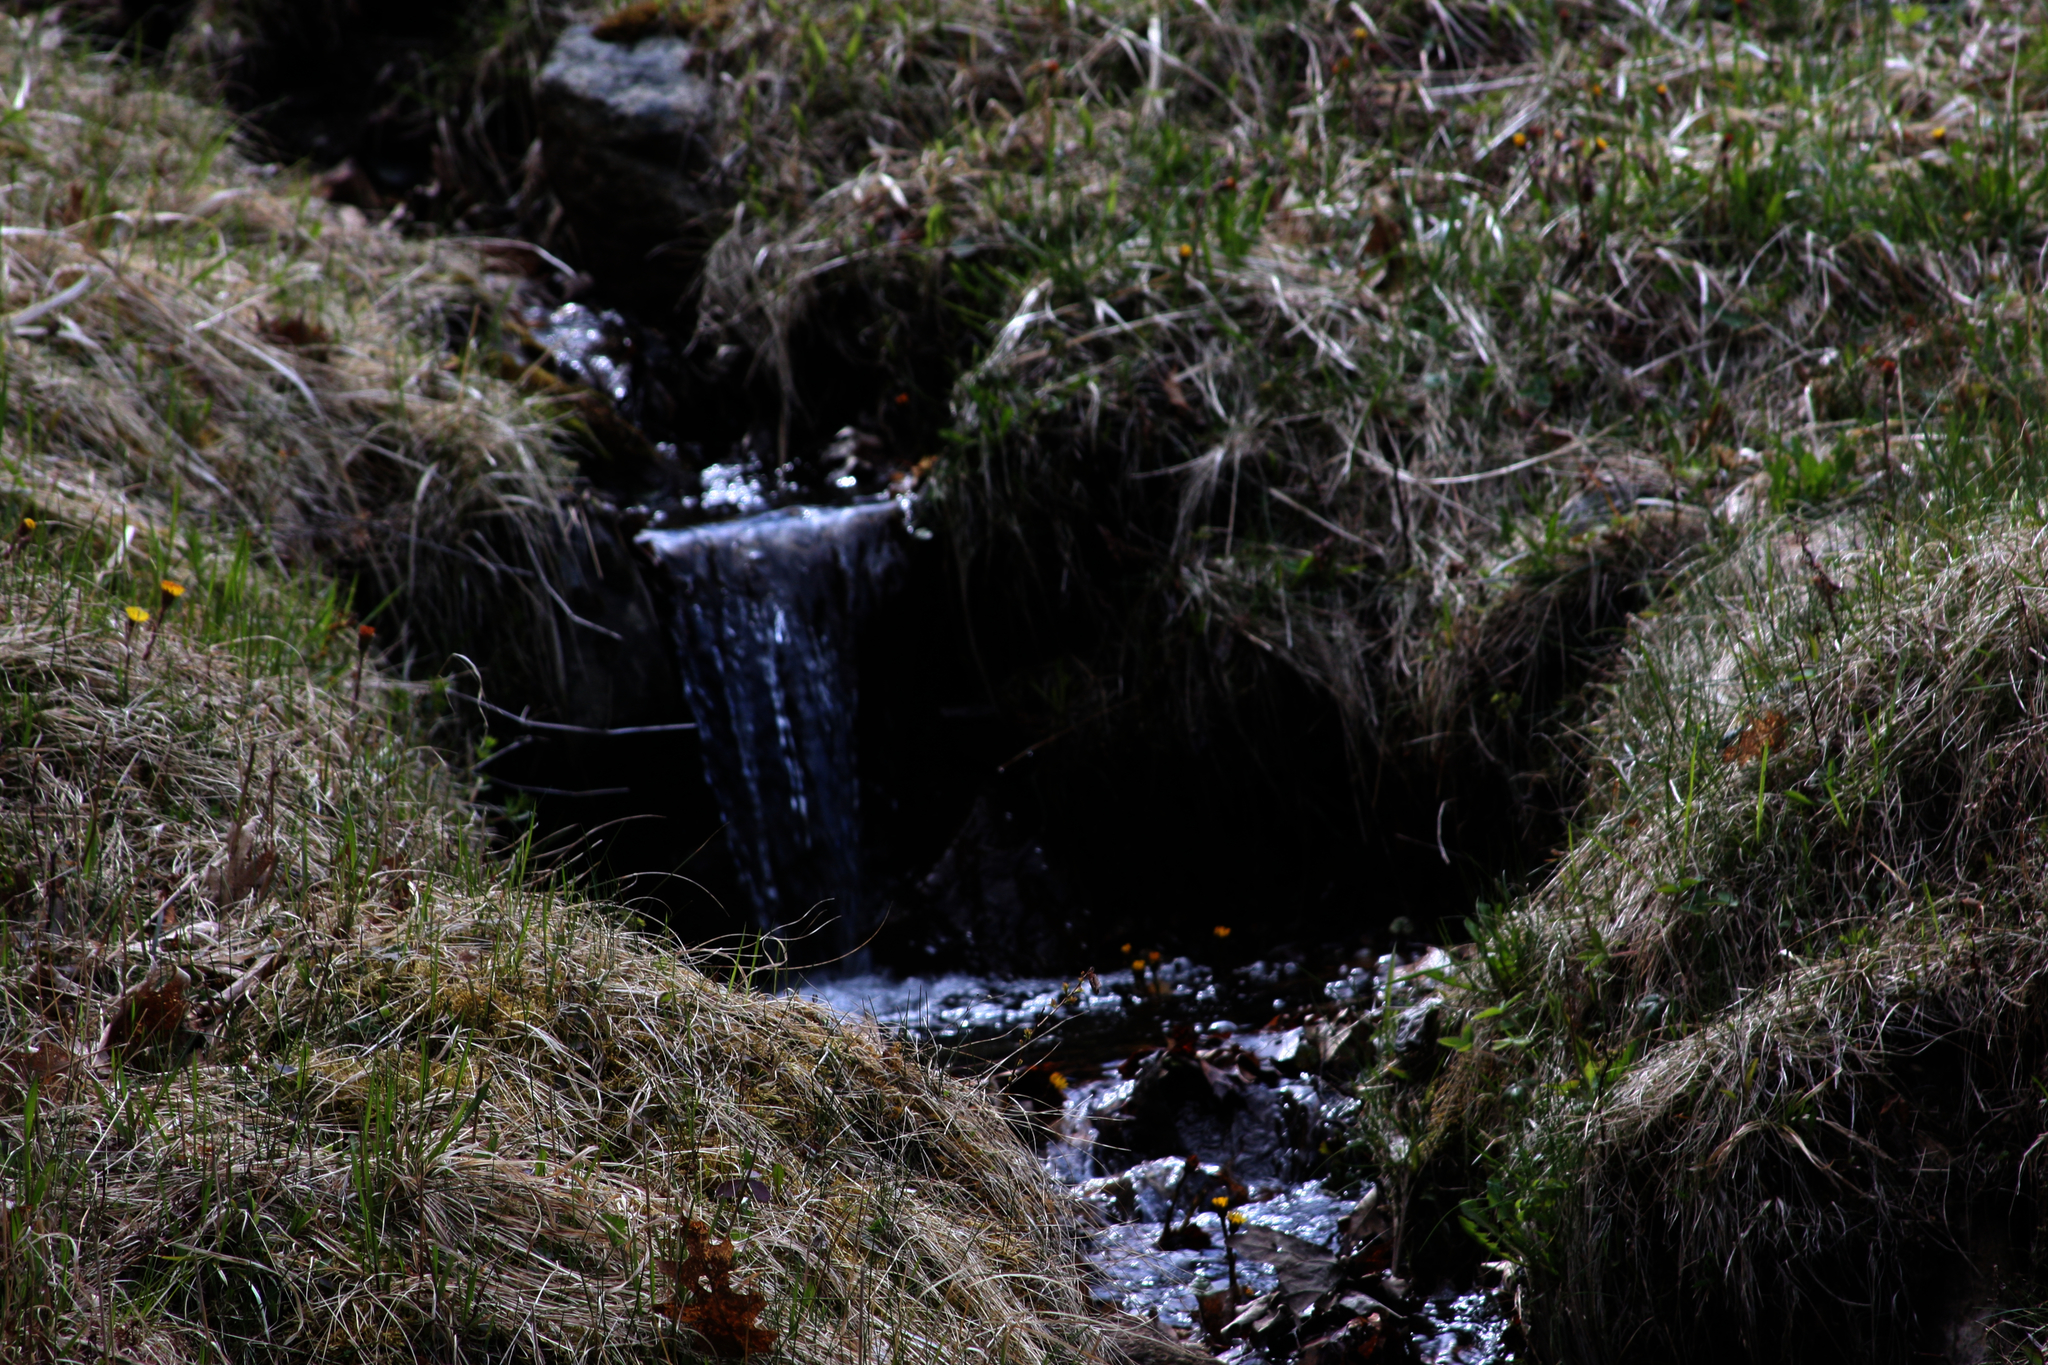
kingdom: Plantae
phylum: Tracheophyta
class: Magnoliopsida
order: Asterales
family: Asteraceae
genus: Tussilago
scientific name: Tussilago farfara
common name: Coltsfoot
